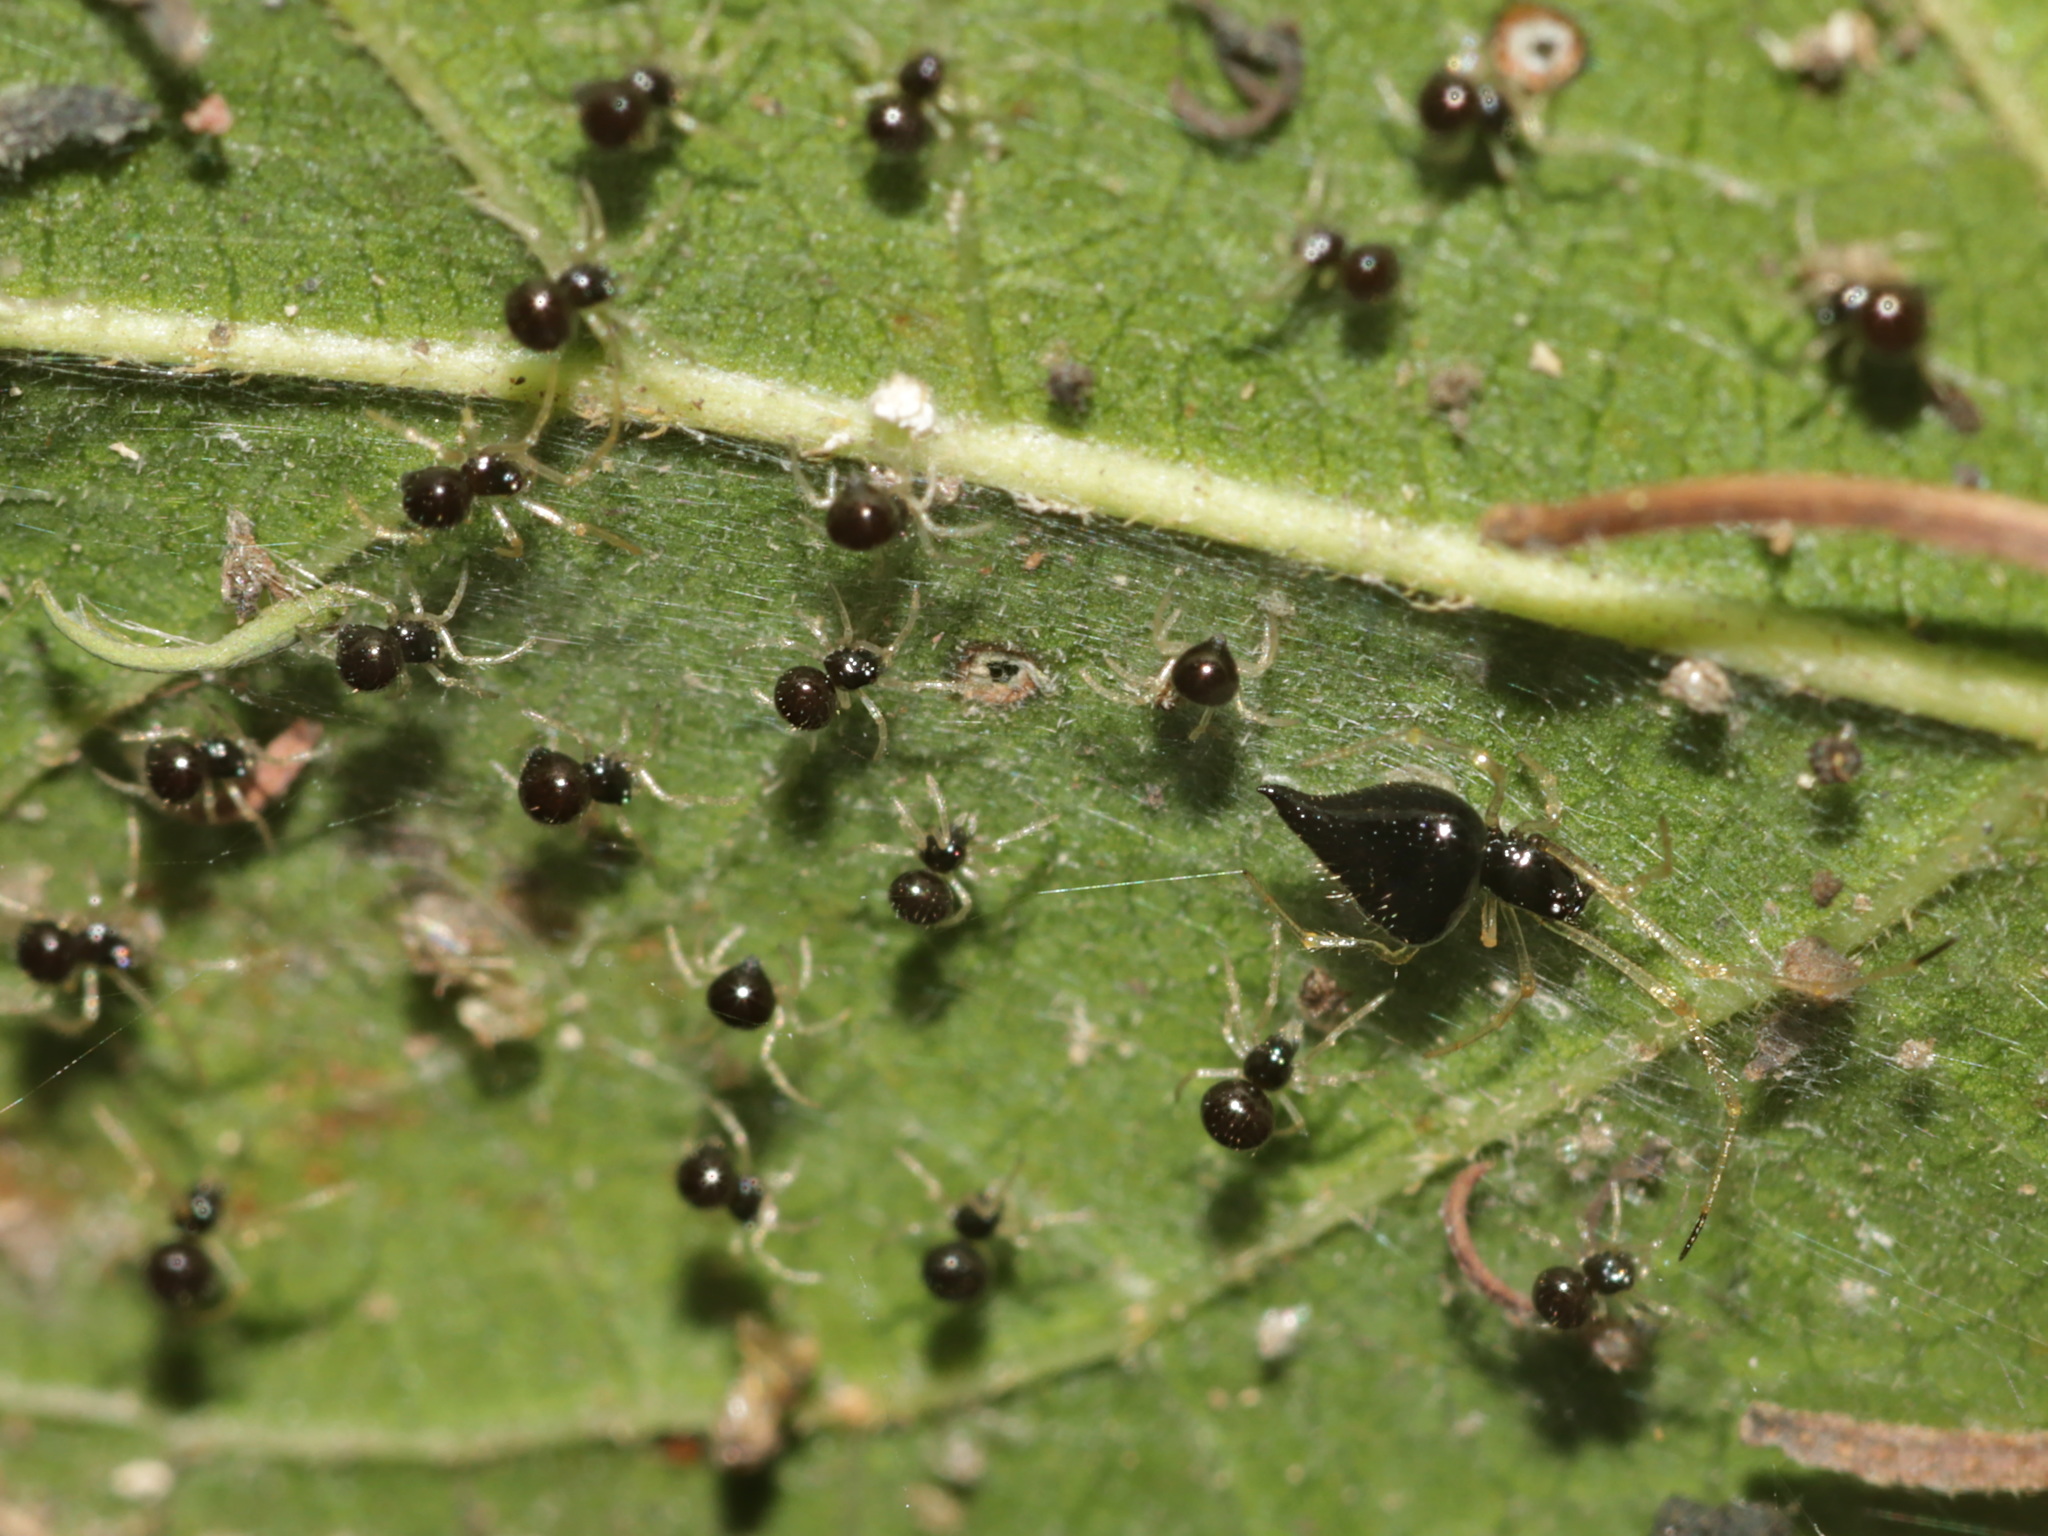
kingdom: Animalia
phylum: Arthropoda
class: Arachnida
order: Araneae
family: Theridiidae
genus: Chikunia
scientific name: Chikunia nigra
